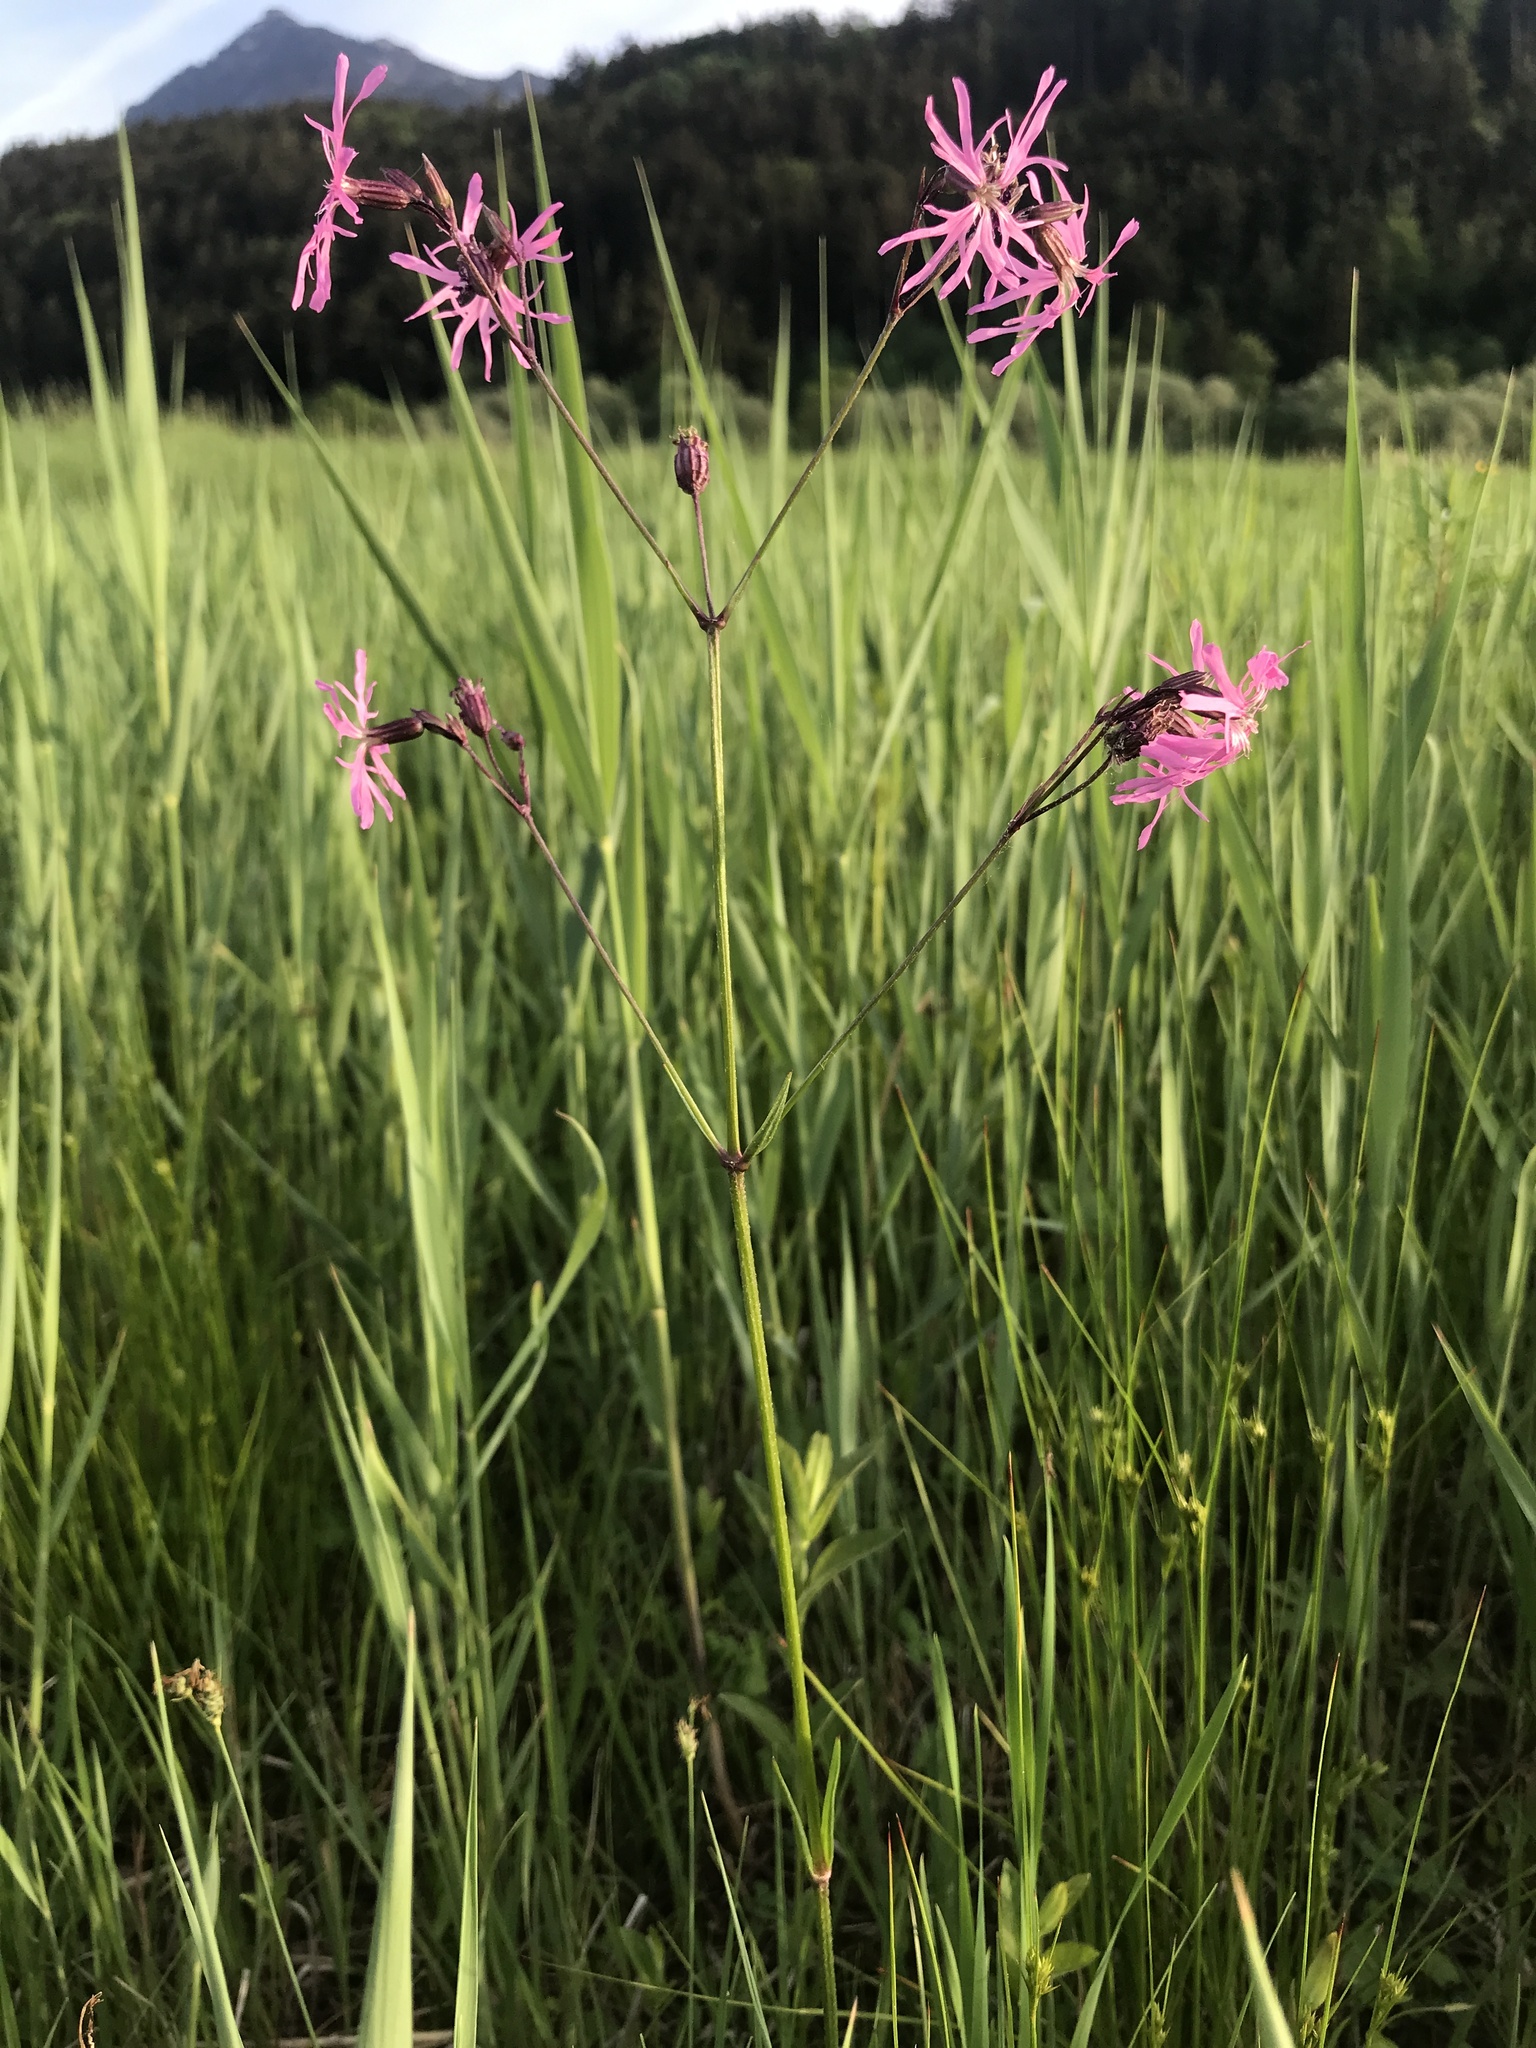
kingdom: Plantae
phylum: Tracheophyta
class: Magnoliopsida
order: Caryophyllales
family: Caryophyllaceae
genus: Silene
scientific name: Silene flos-cuculi
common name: Ragged-robin
